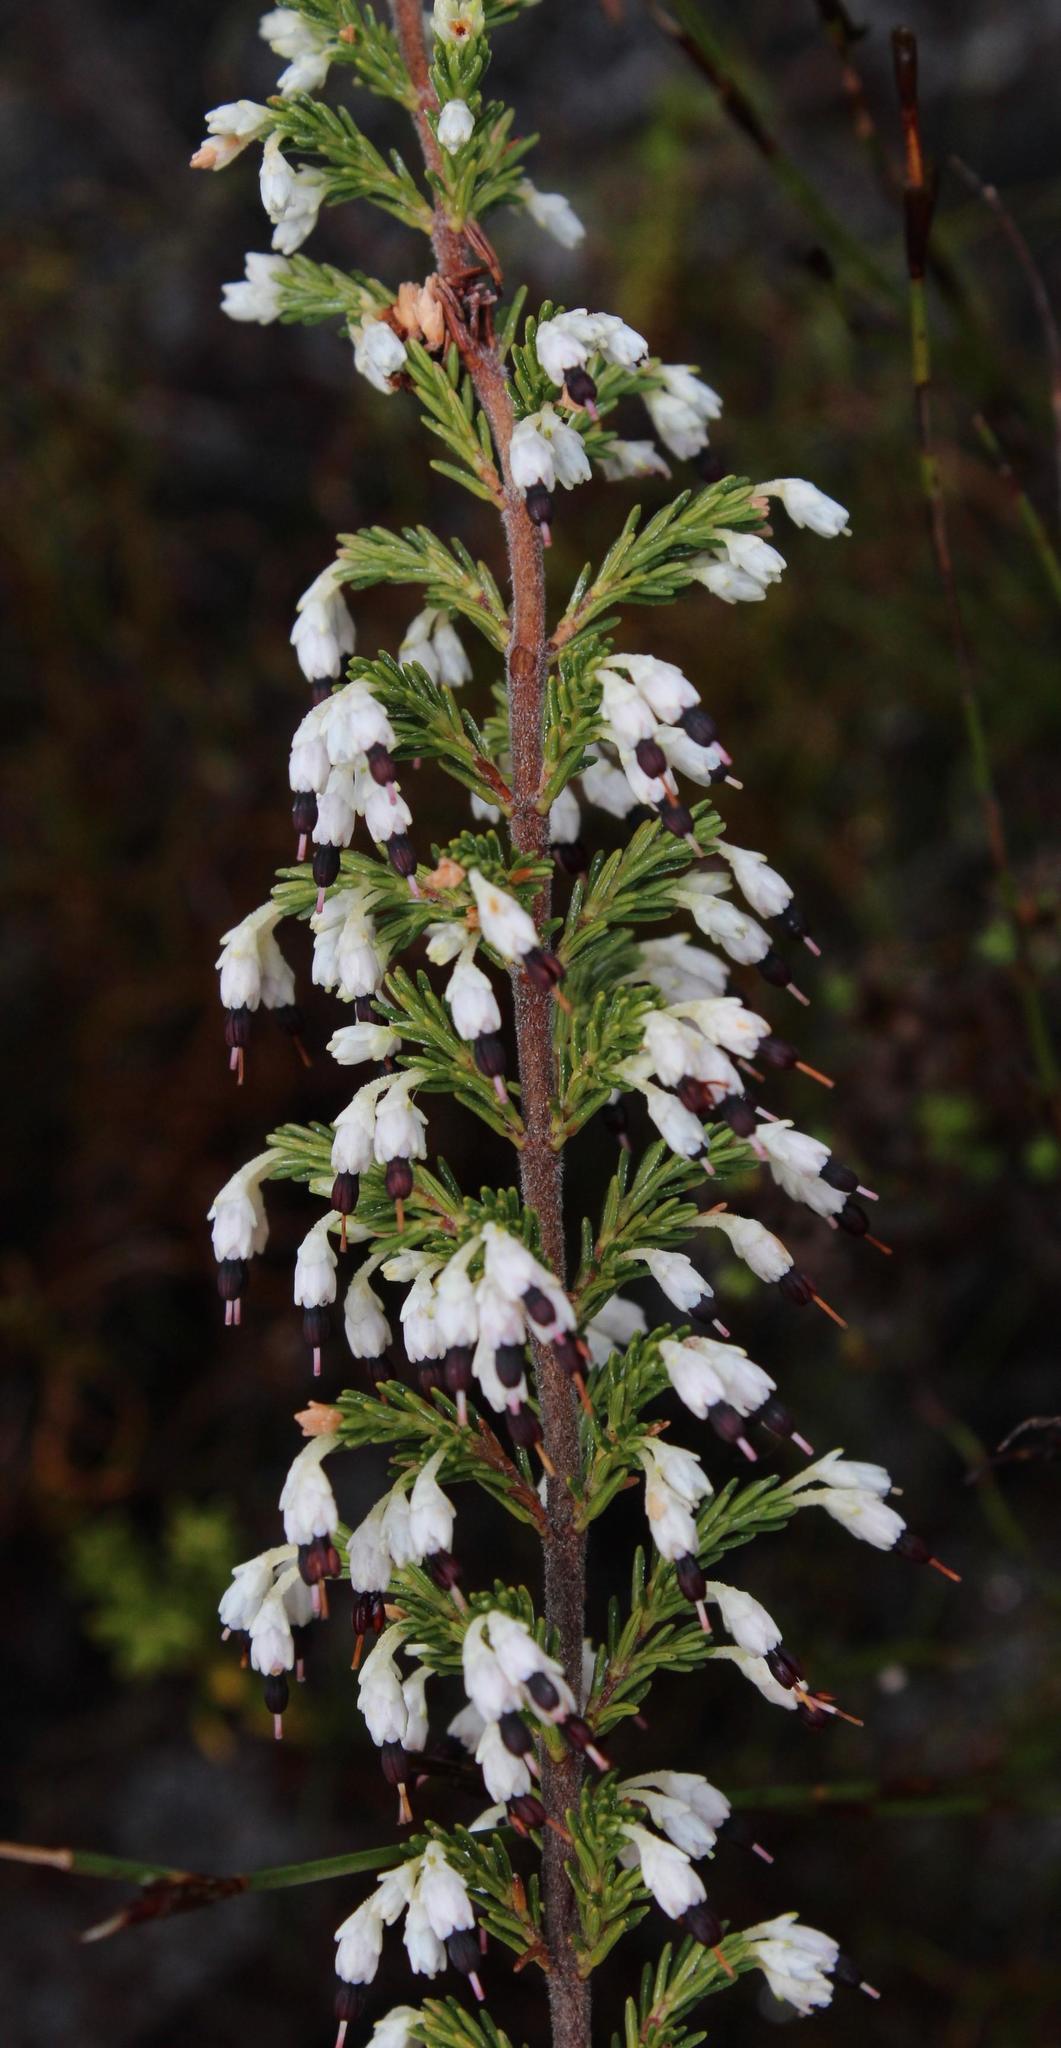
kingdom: Plantae
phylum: Tracheophyta
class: Magnoliopsida
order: Ericales
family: Ericaceae
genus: Erica
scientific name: Erica imbricata
